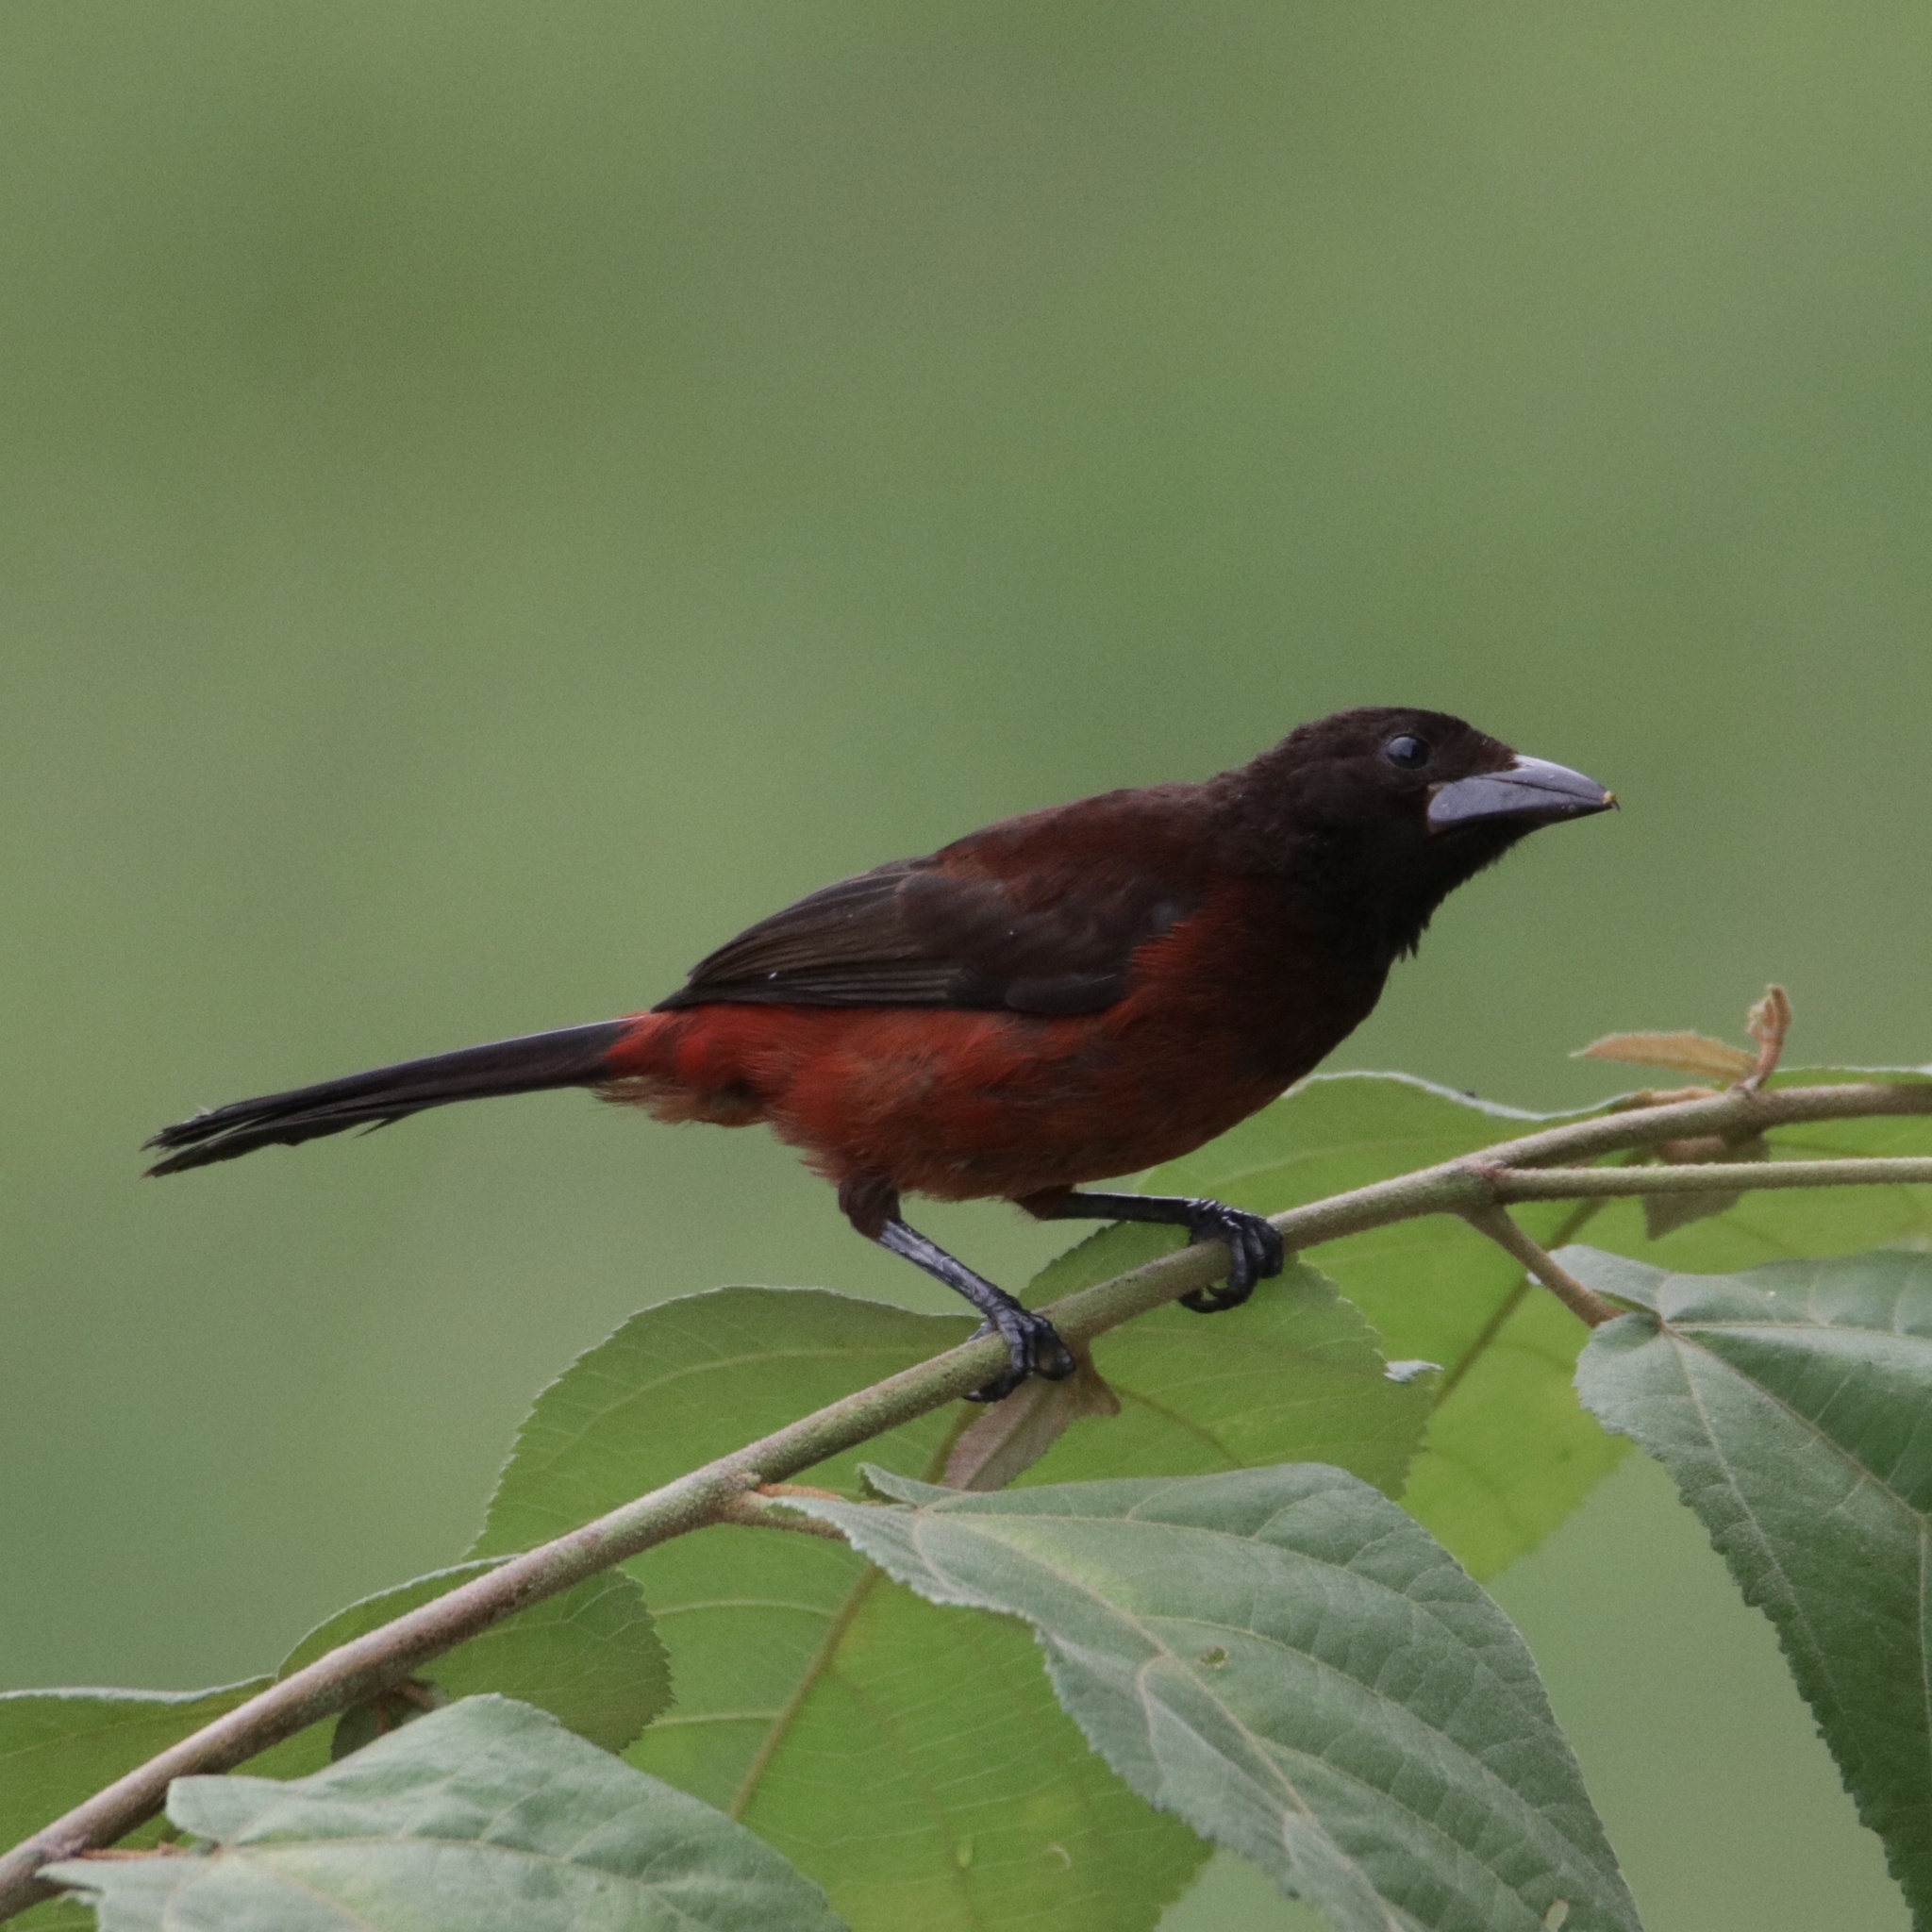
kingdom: Animalia
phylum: Chordata
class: Aves
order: Passeriformes
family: Thraupidae
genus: Ramphocelus
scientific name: Ramphocelus dimidiatus
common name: Crimson-backed tanager
